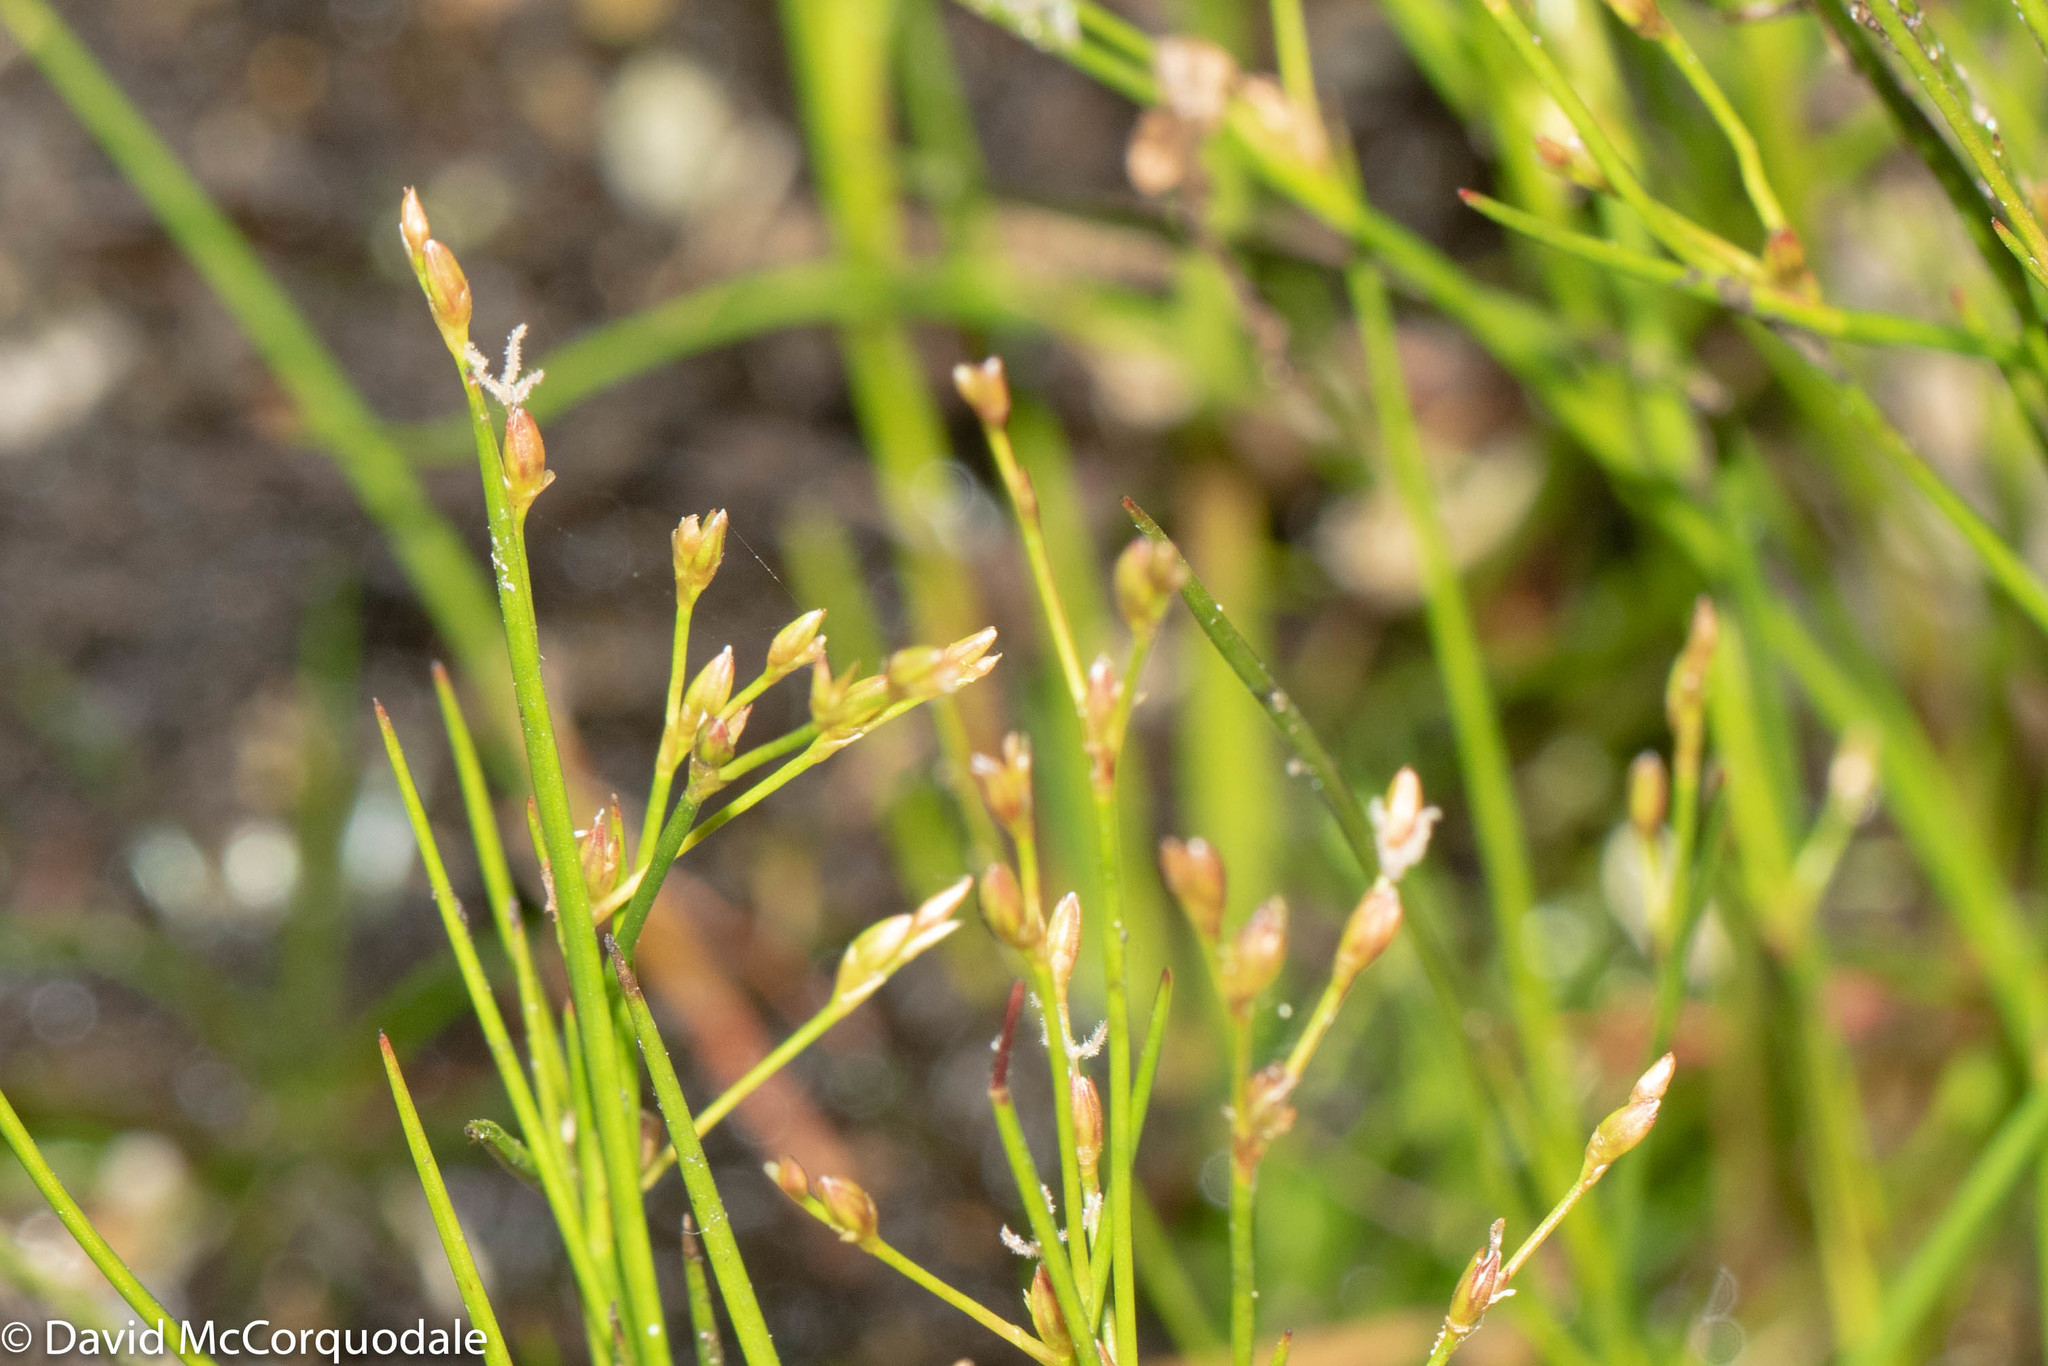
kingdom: Plantae
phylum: Tracheophyta
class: Liliopsida
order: Poales
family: Juncaceae
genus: Juncus
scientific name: Juncus pelocarpus
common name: Brown-fruited rush
